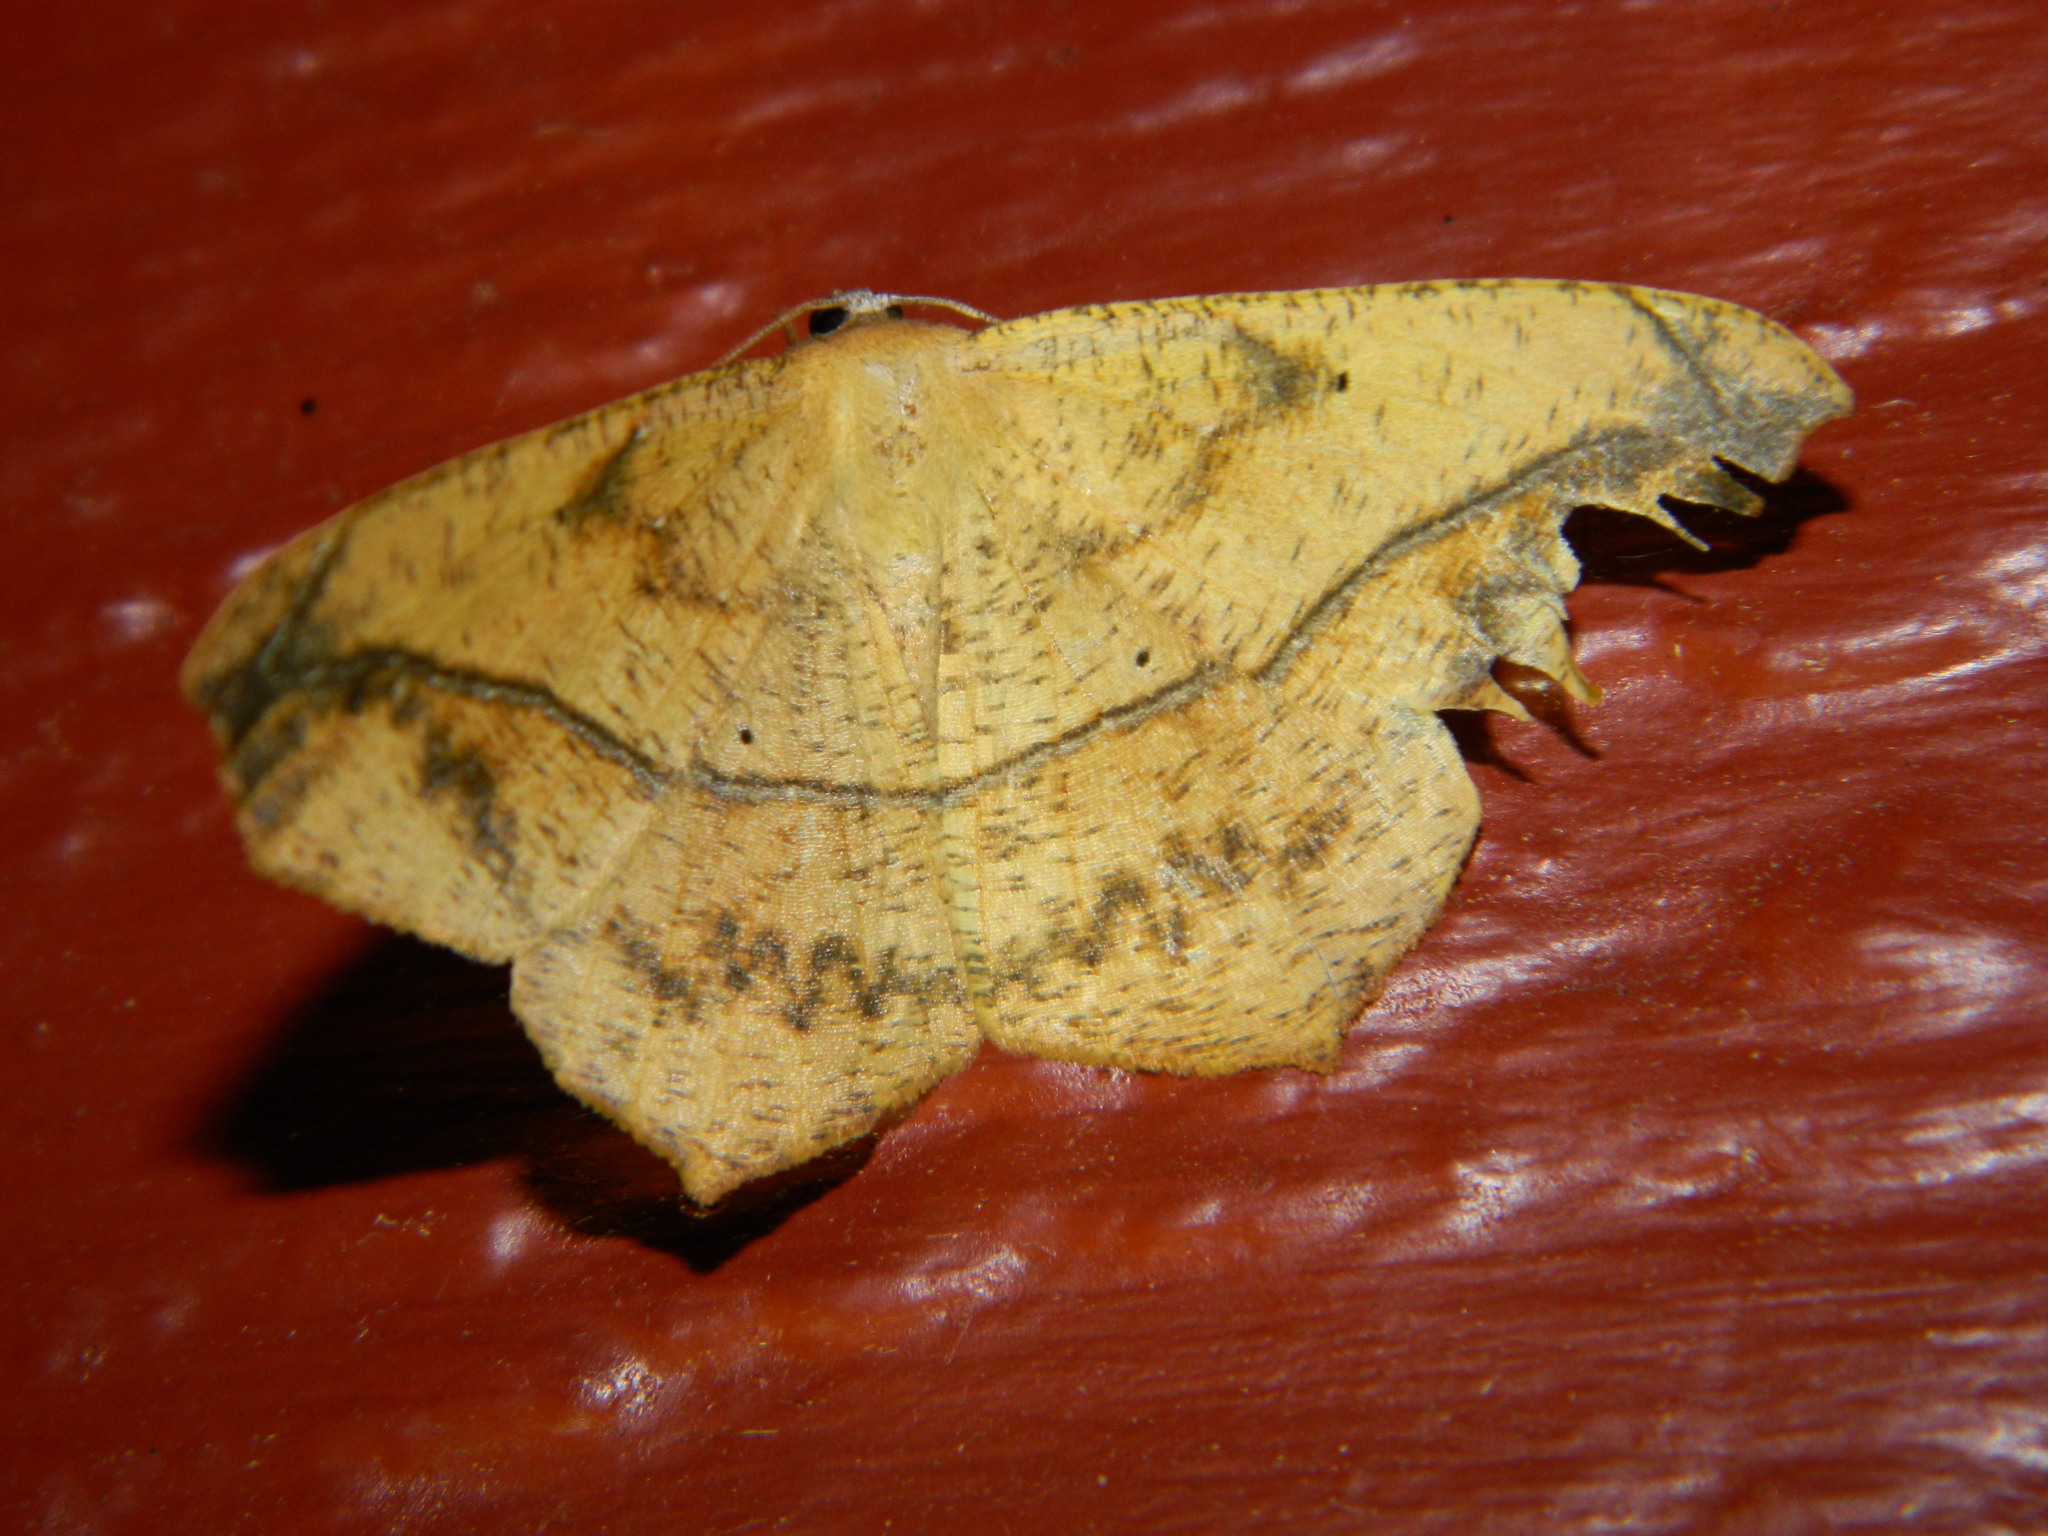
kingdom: Animalia
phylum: Arthropoda
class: Insecta
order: Lepidoptera
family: Geometridae
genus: Prochoerodes
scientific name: Prochoerodes lineola
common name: Large maple spanworm
